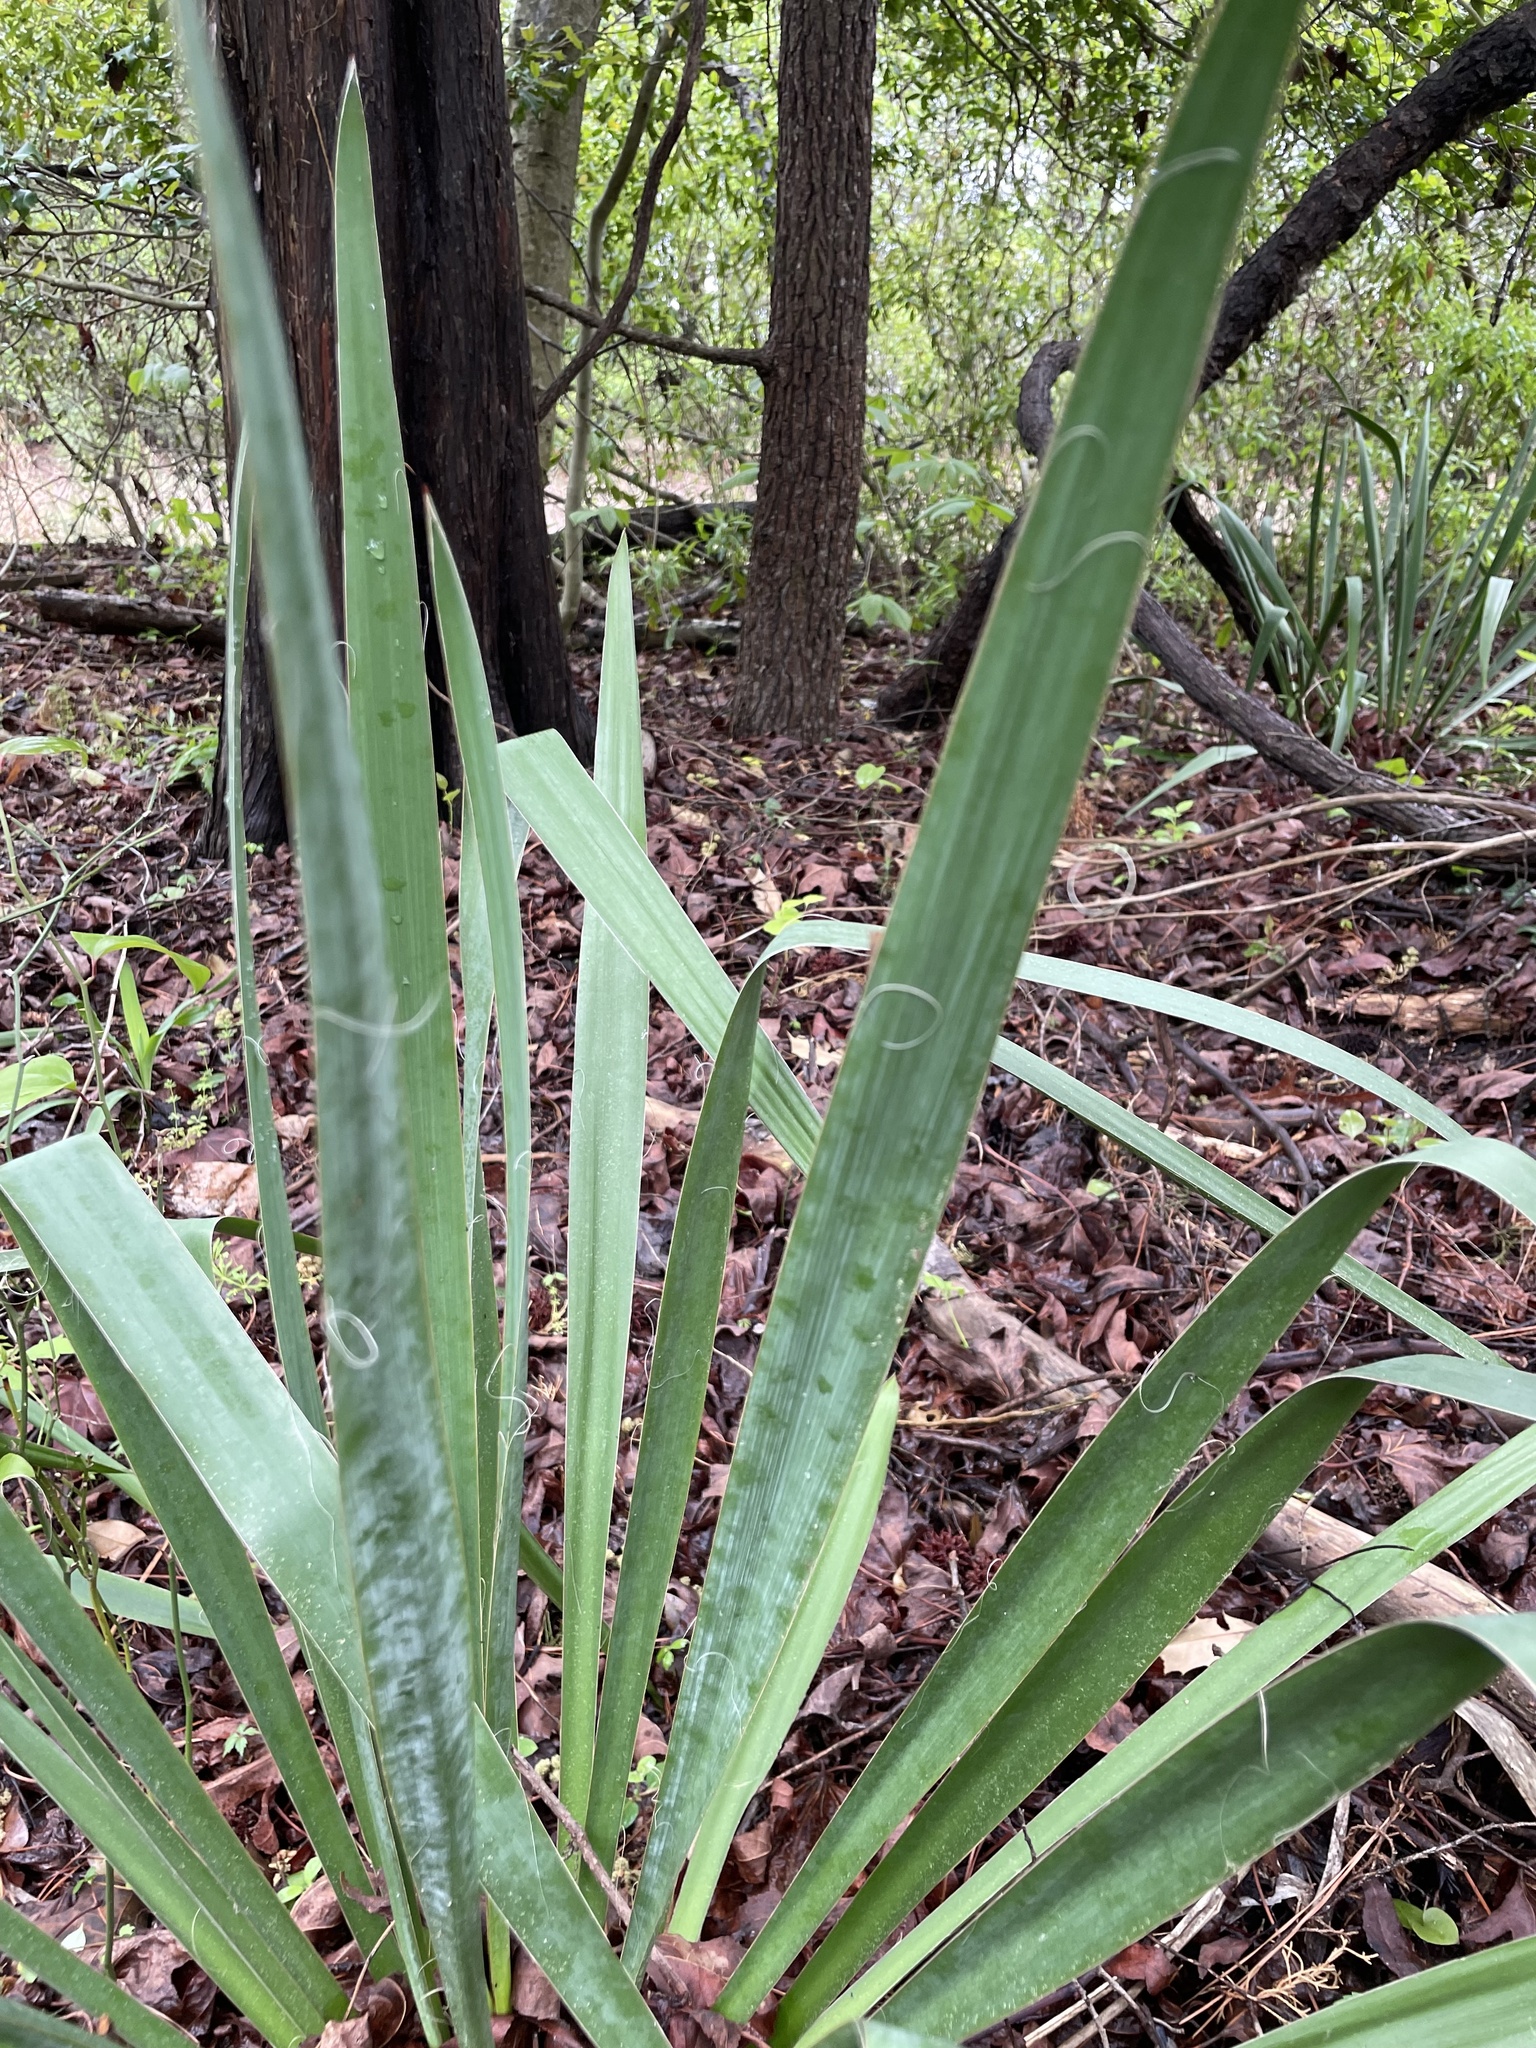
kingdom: Plantae
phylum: Tracheophyta
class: Liliopsida
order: Asparagales
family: Asparagaceae
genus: Yucca
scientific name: Yucca filamentosa
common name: Adam's-needle
